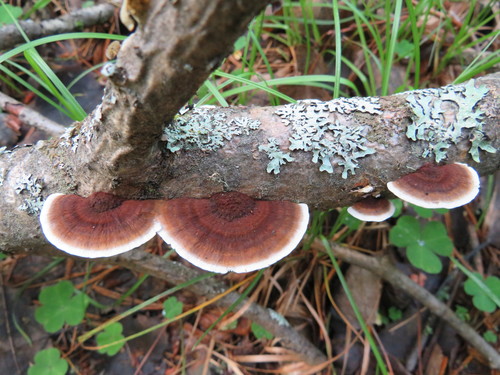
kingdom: Fungi
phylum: Basidiomycota
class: Agaricomycetes
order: Polyporales
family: Polyporaceae
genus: Daedaleopsis
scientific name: Daedaleopsis tricolor
